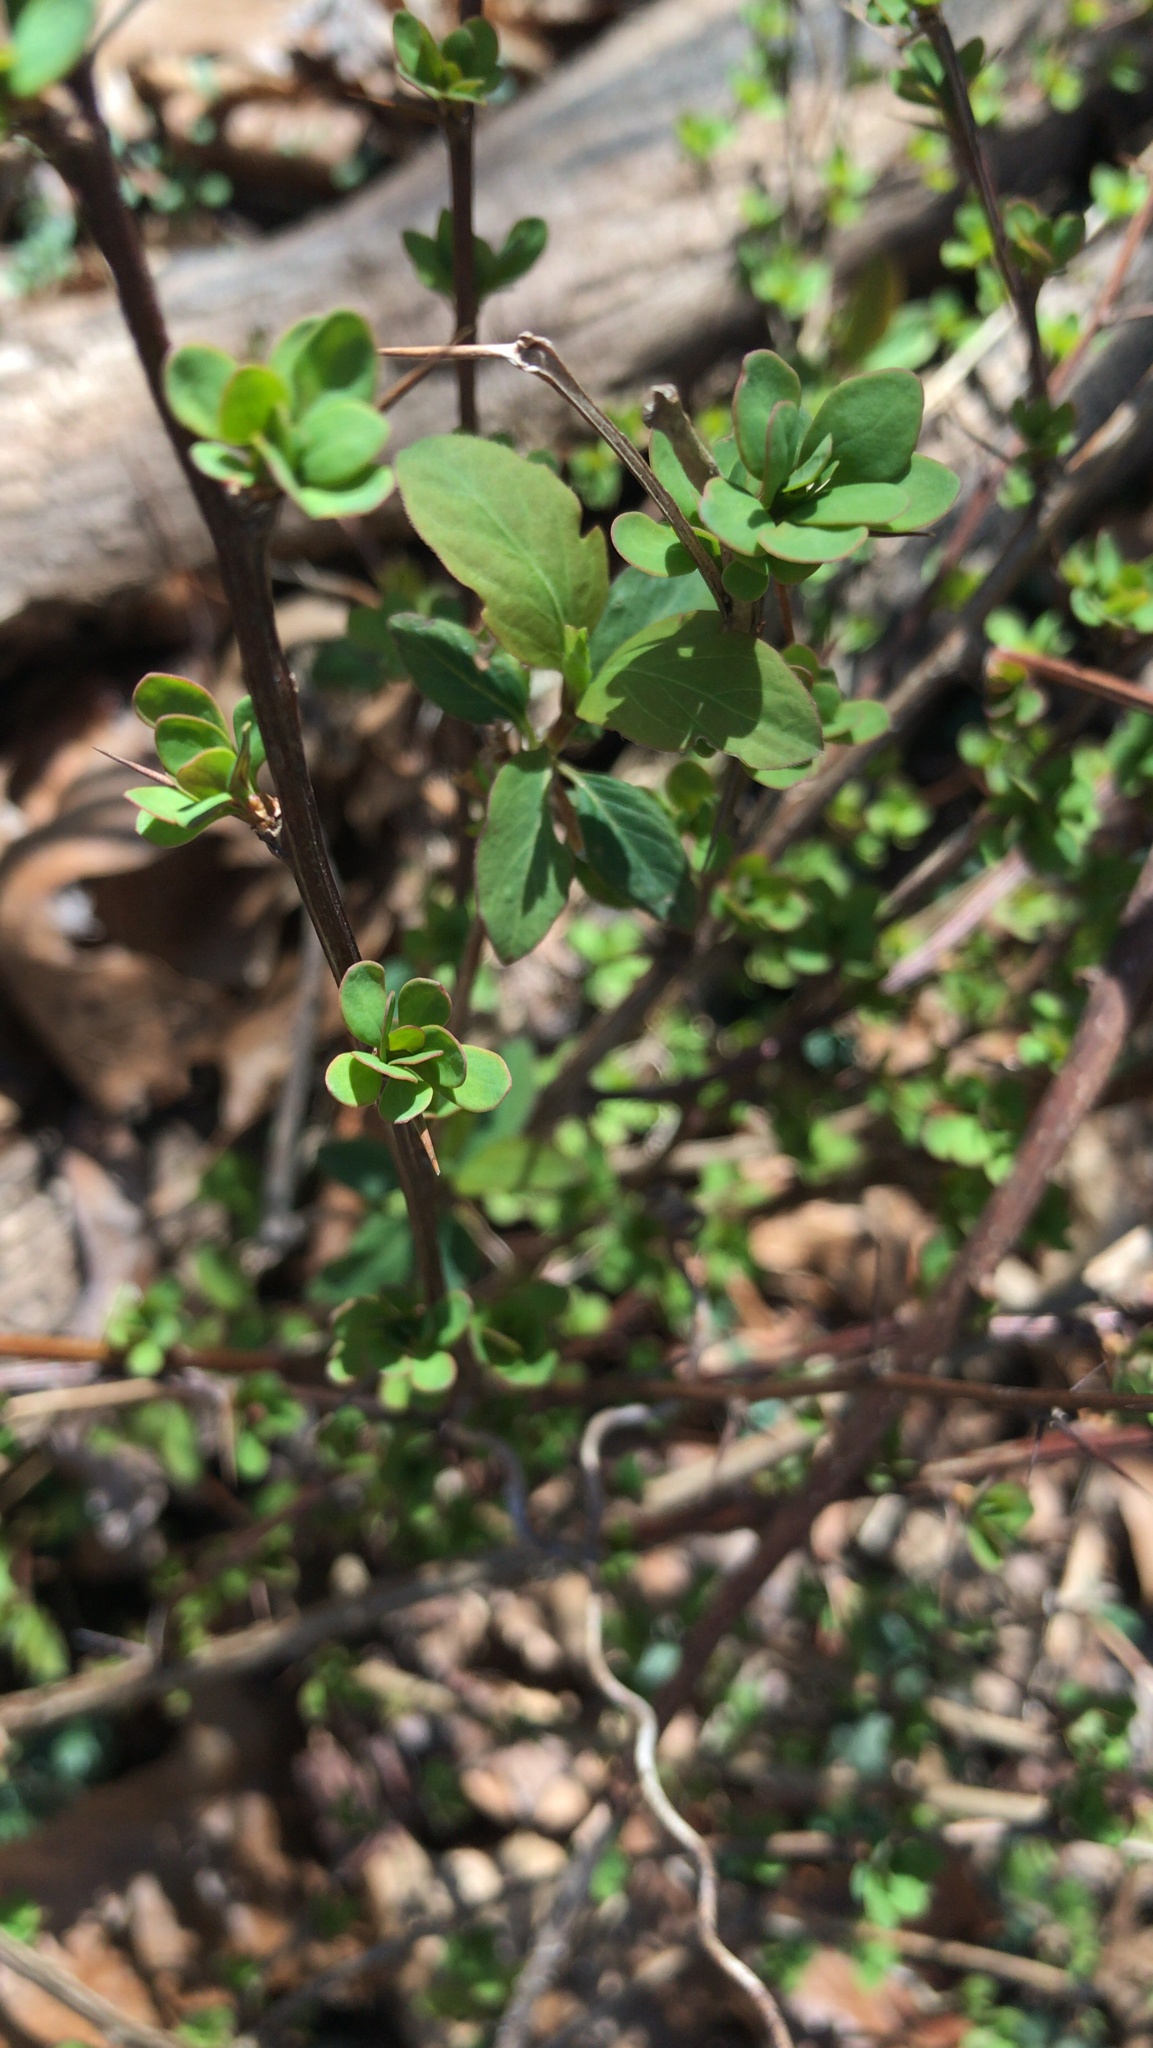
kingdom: Plantae
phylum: Tracheophyta
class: Magnoliopsida
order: Ranunculales
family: Berberidaceae
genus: Berberis
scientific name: Berberis thunbergii
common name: Japanese barberry
